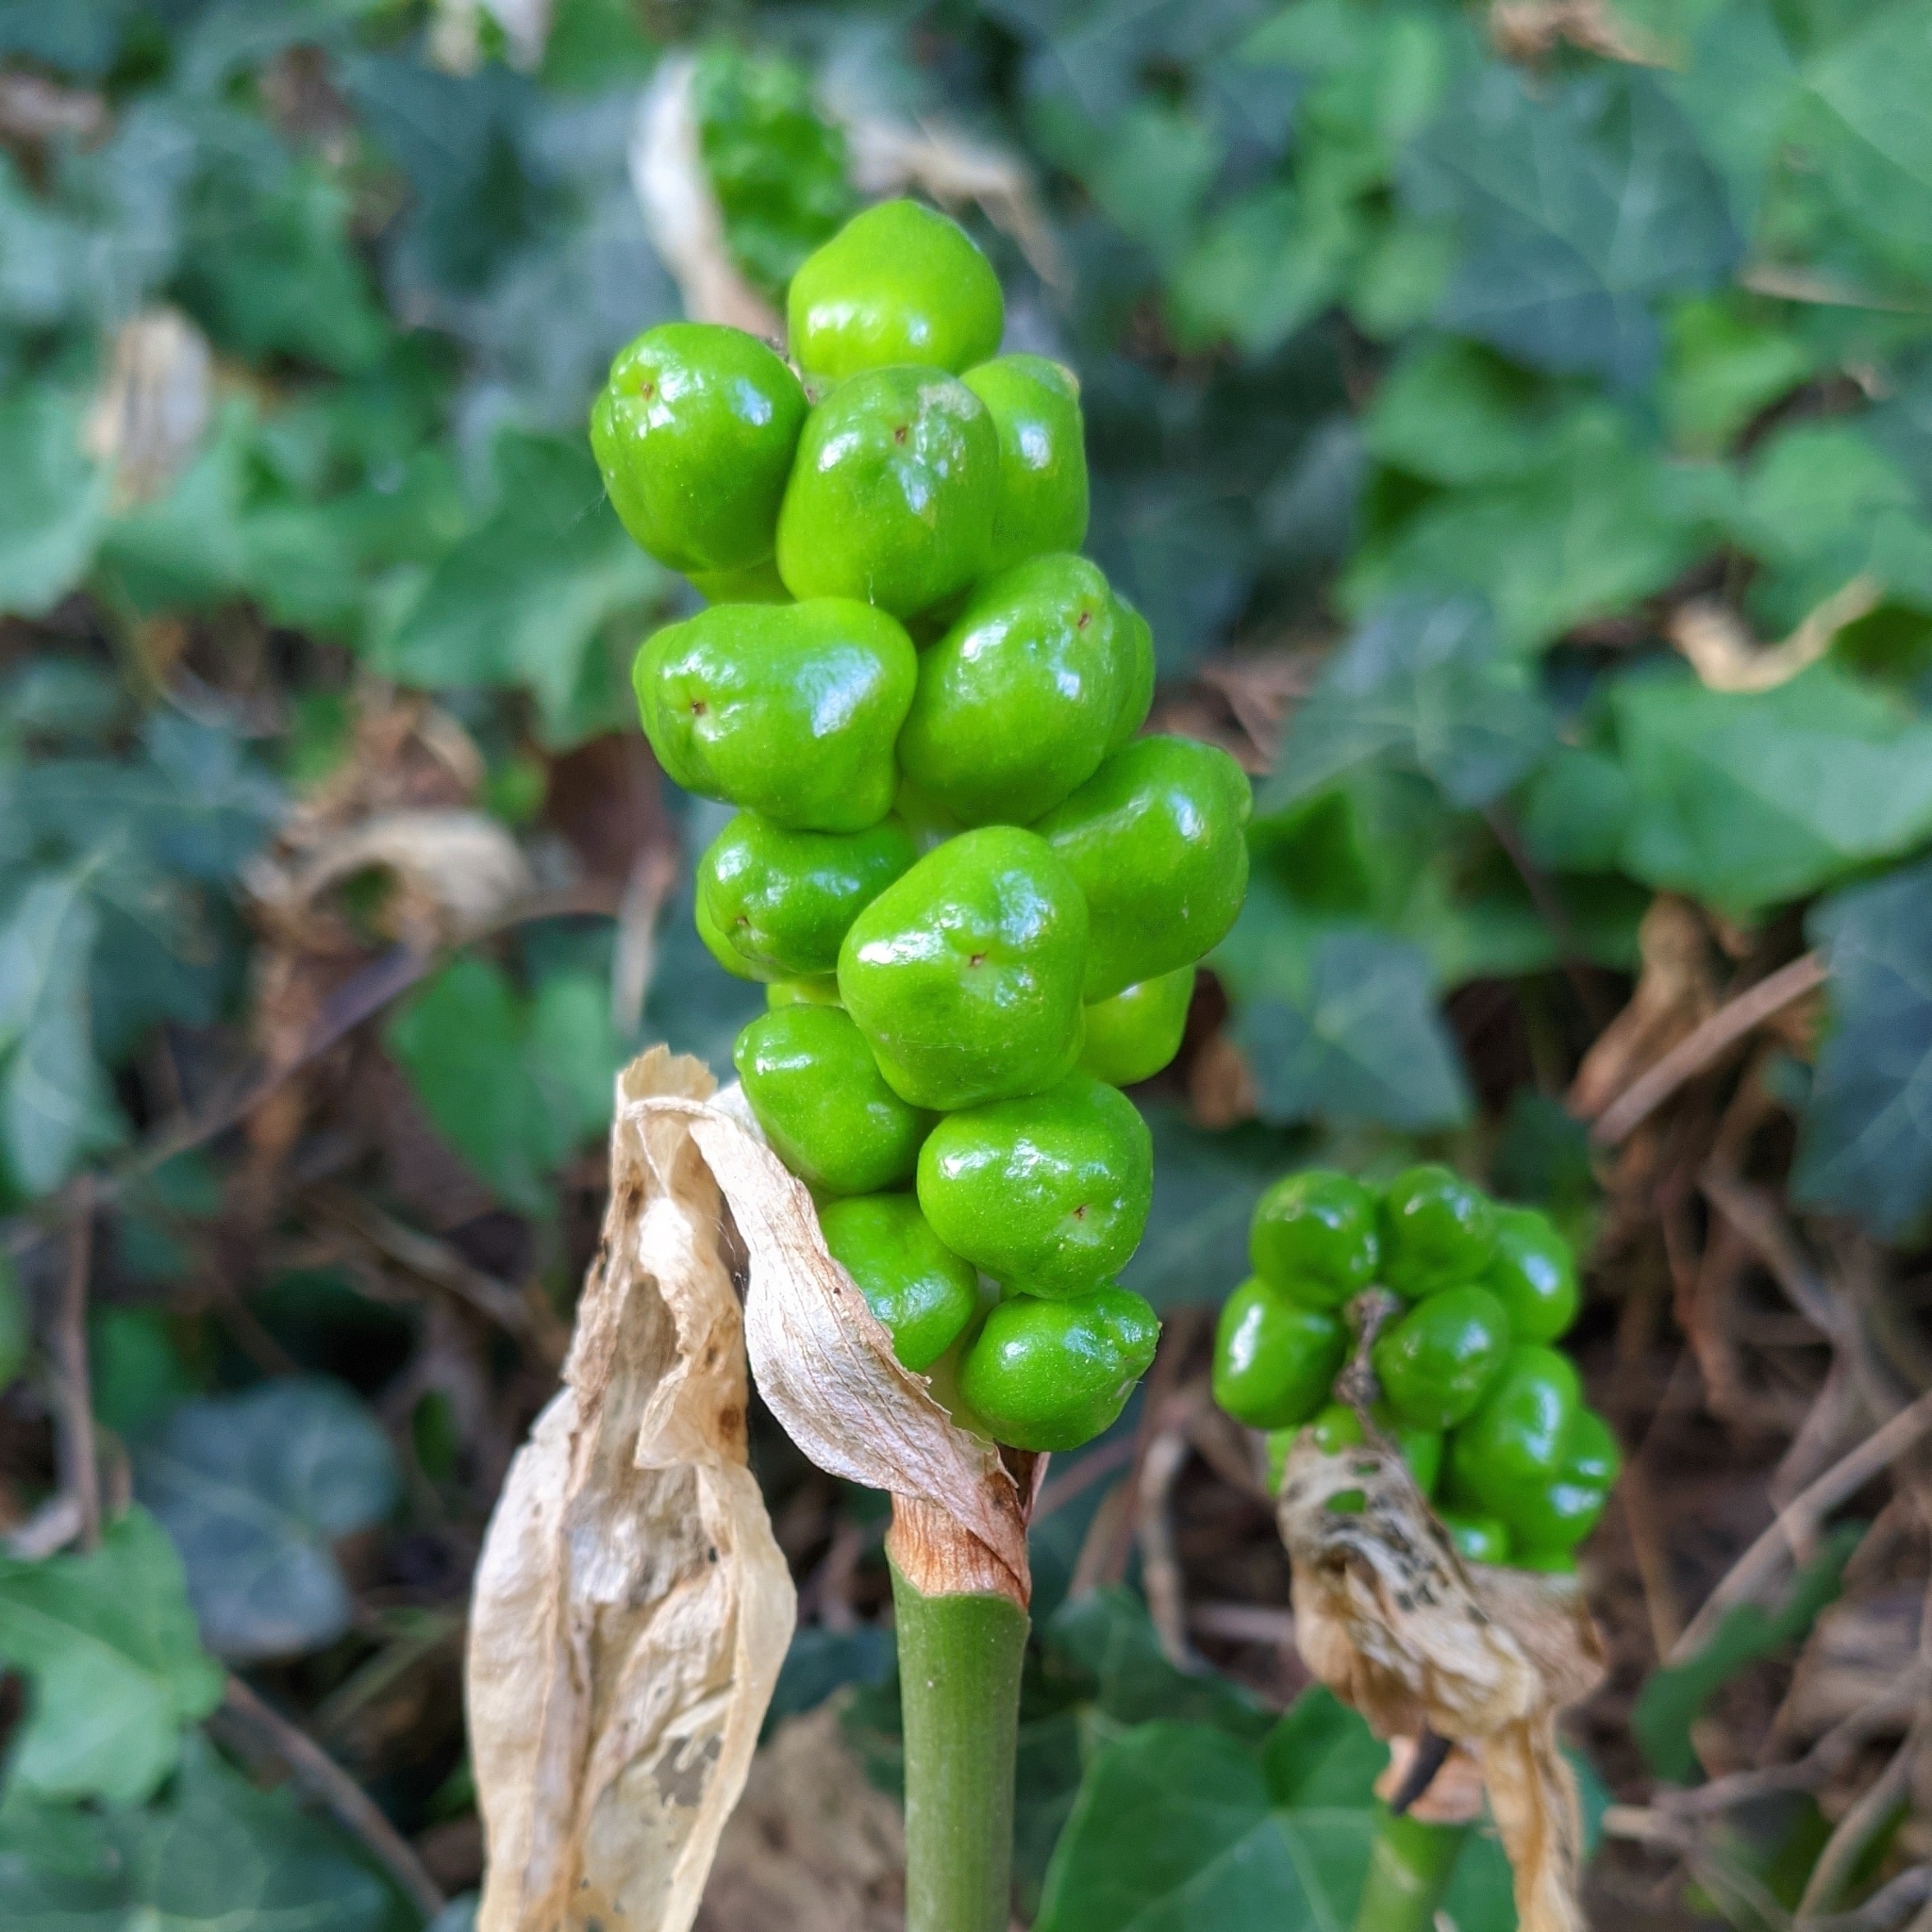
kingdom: Plantae
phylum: Tracheophyta
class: Liliopsida
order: Alismatales
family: Araceae
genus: Arum
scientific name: Arum maculatum
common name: Lords-and-ladies
